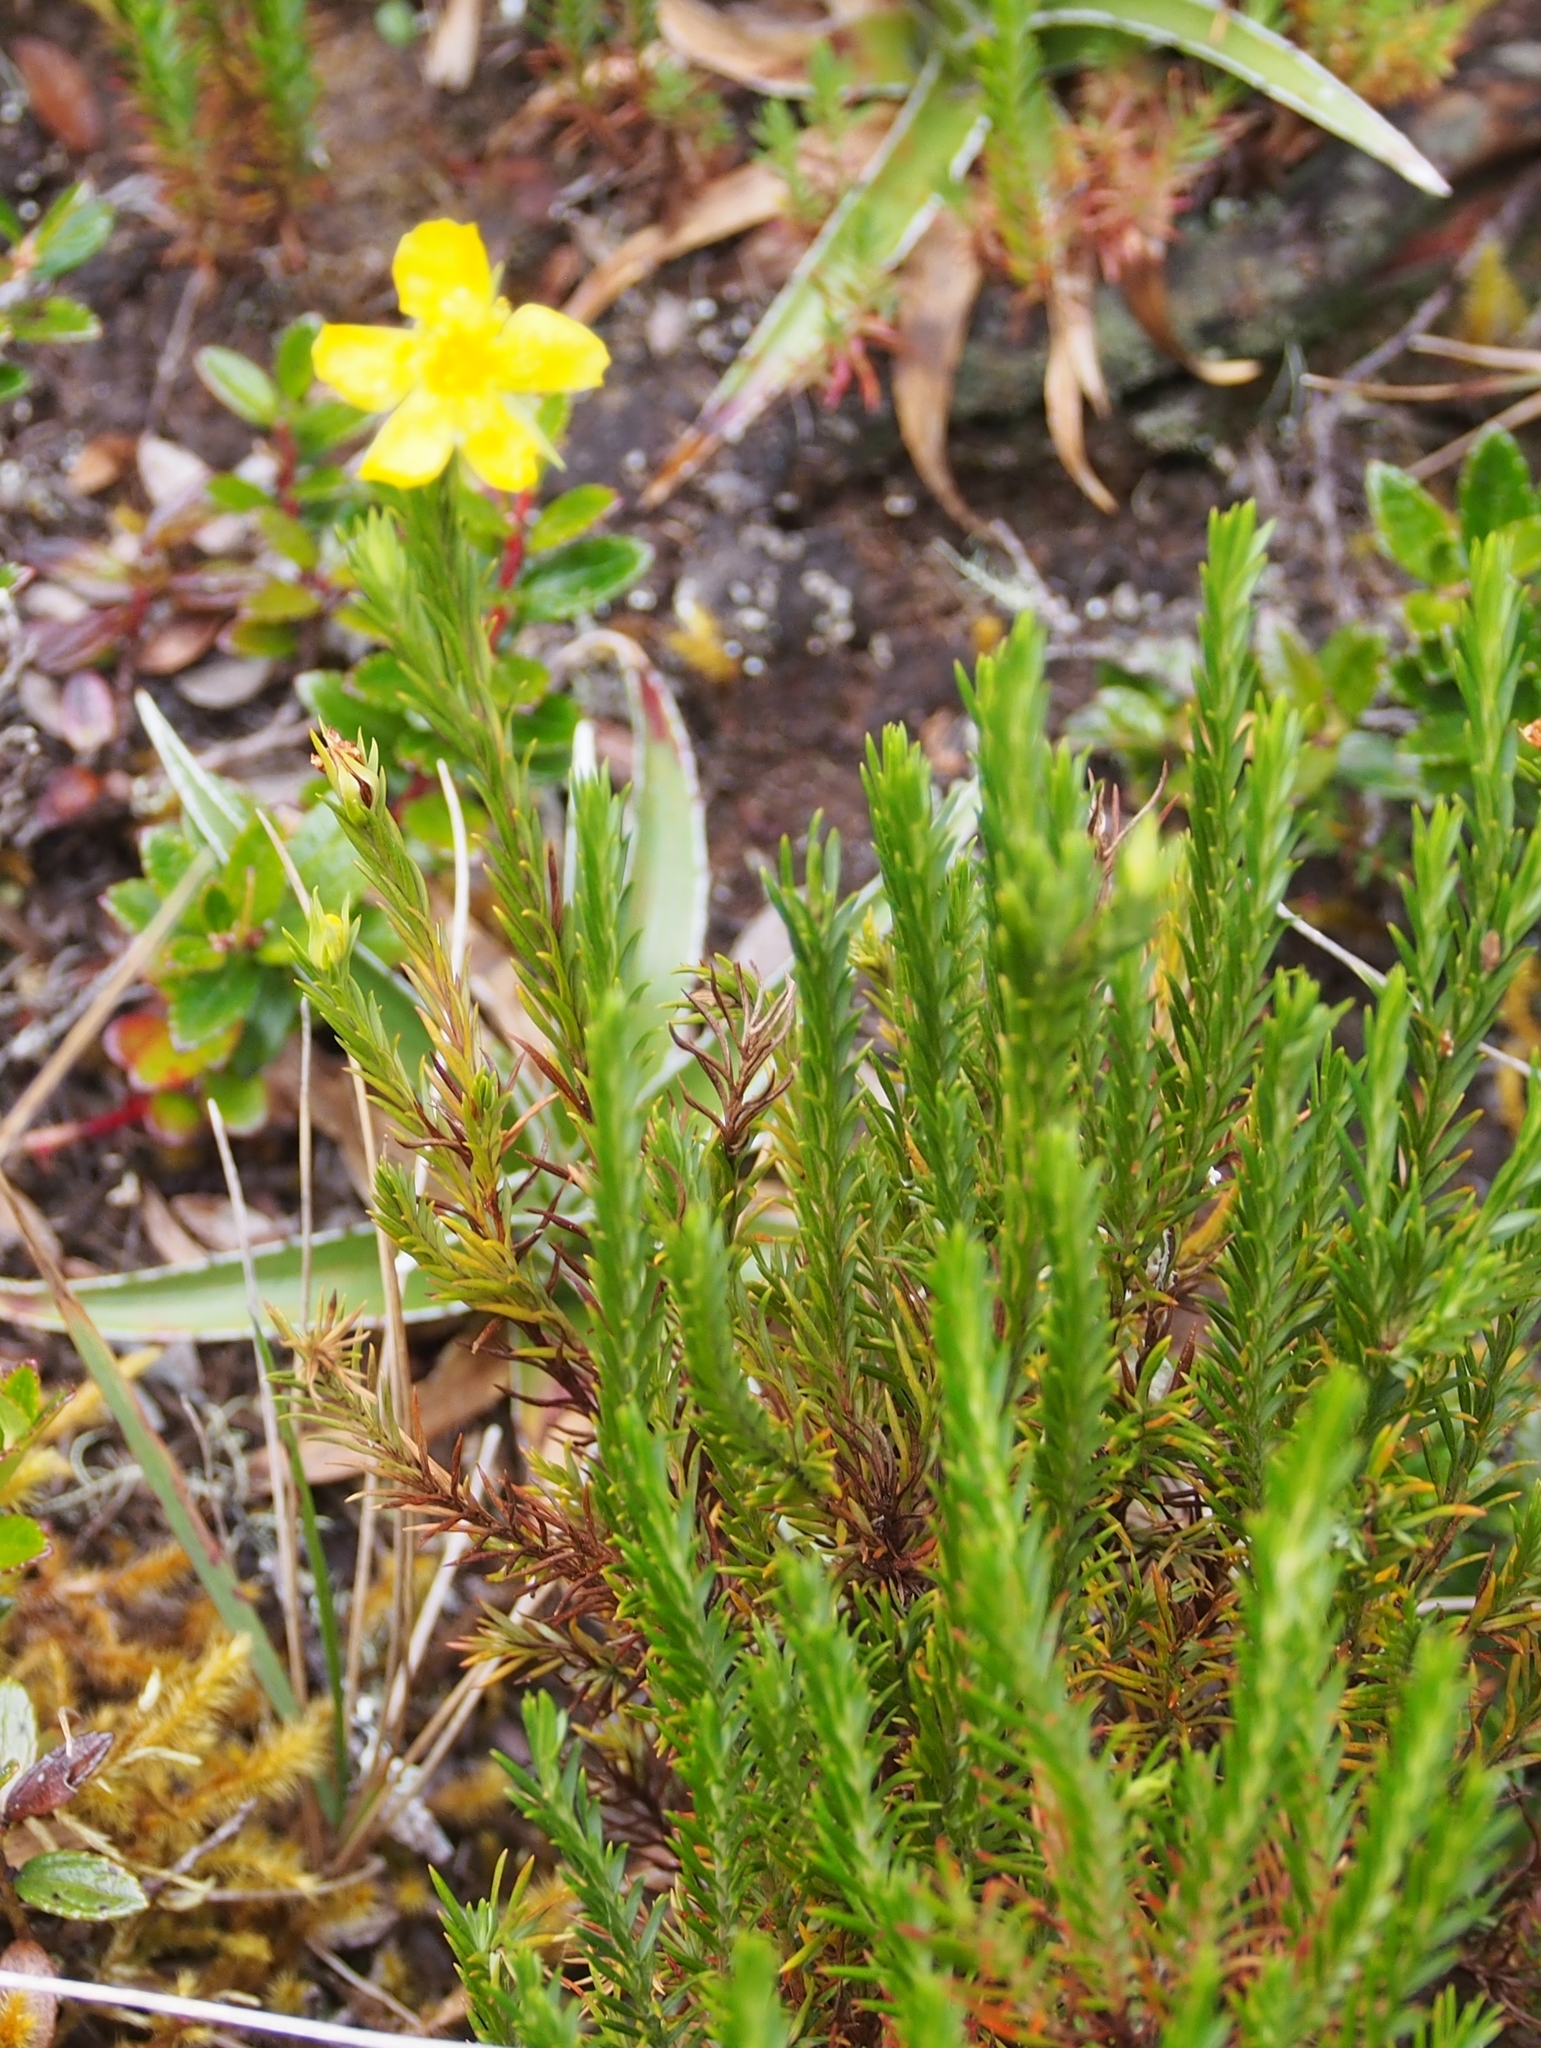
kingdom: Plantae
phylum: Tracheophyta
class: Magnoliopsida
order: Malpighiales
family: Hypericaceae
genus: Hypericum
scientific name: Hypericum costaricense
